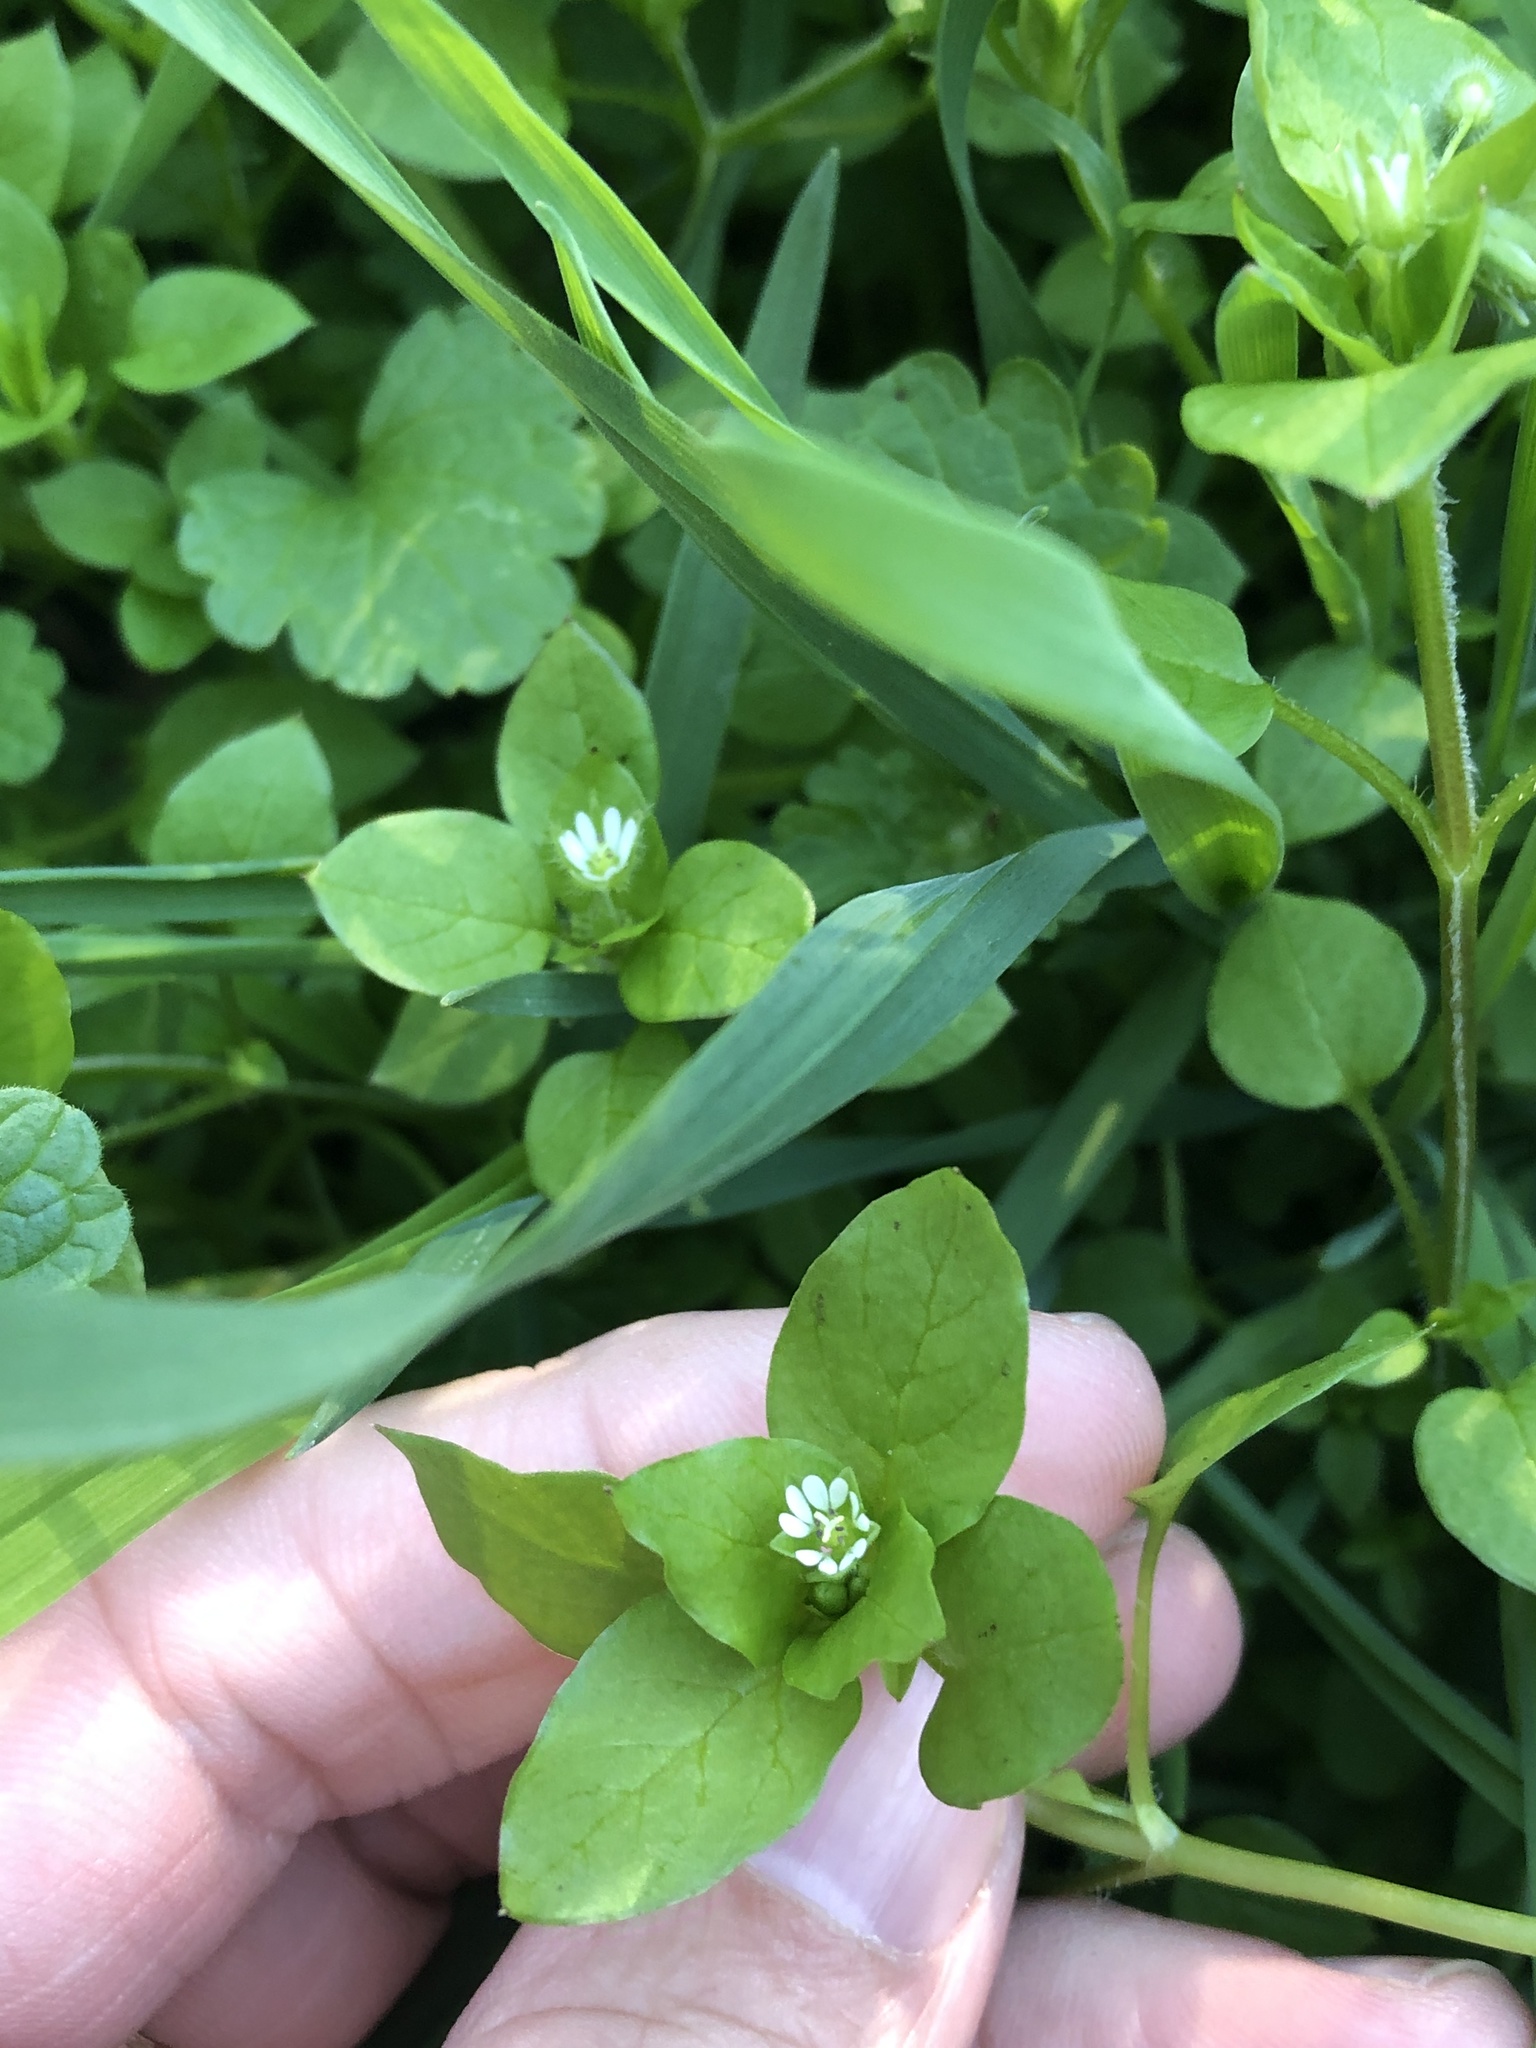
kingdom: Plantae
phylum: Tracheophyta
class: Magnoliopsida
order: Caryophyllales
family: Caryophyllaceae
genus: Stellaria
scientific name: Stellaria media
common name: Common chickweed
